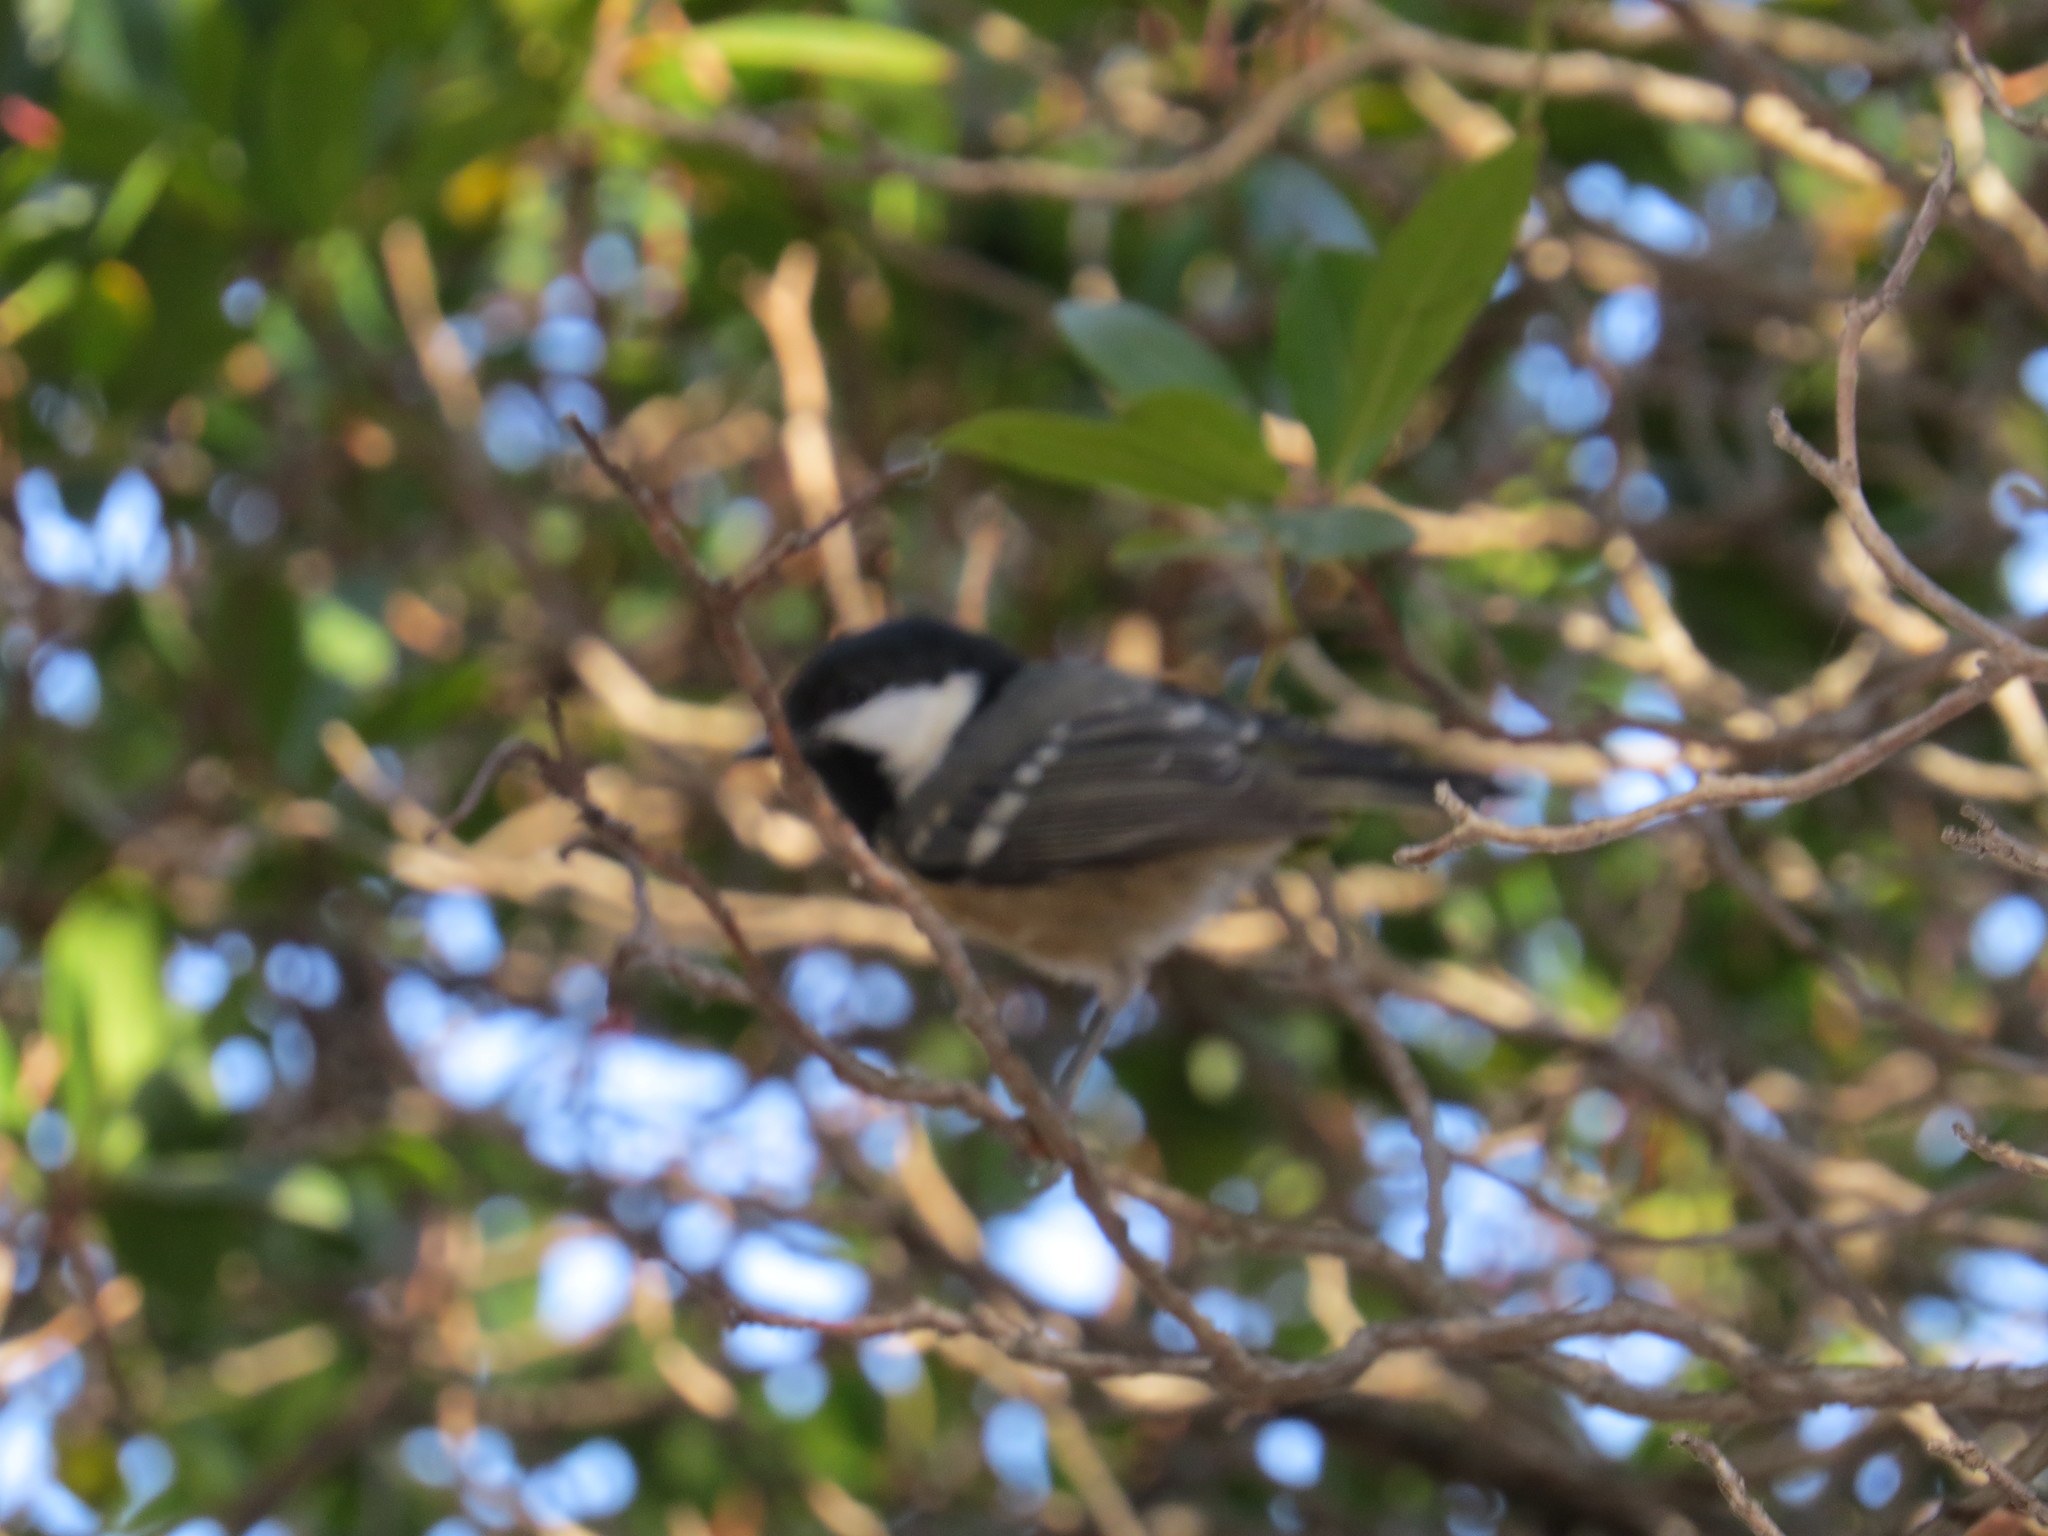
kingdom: Animalia
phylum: Chordata
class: Aves
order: Passeriformes
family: Paridae
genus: Periparus
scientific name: Periparus ater
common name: Coal tit
